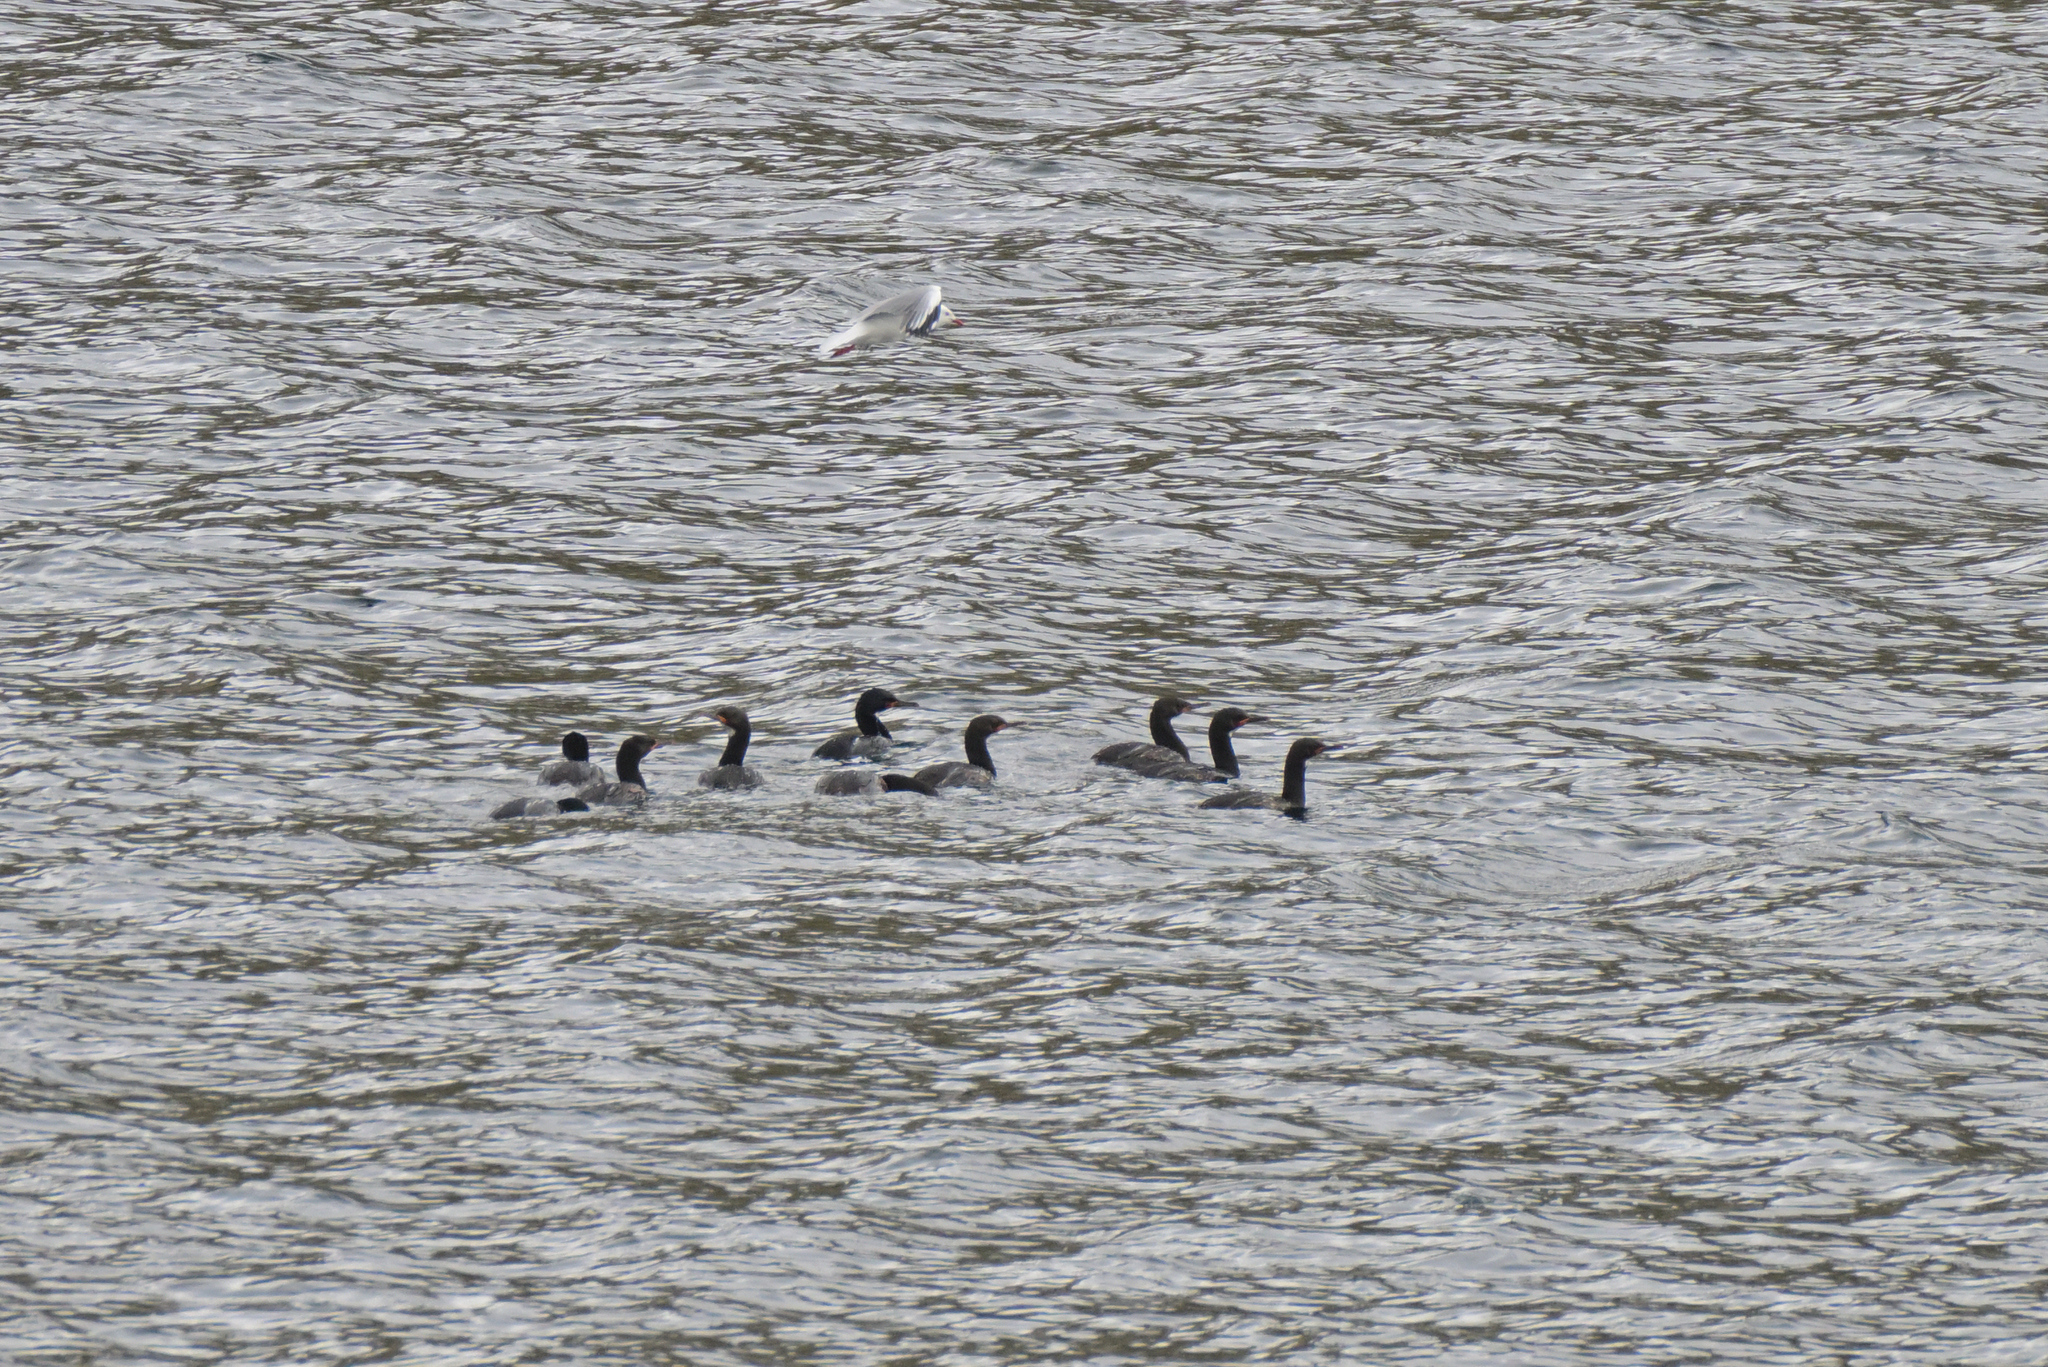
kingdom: Animalia
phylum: Chordata
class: Aves
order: Suliformes
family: Phalacrocoracidae
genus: Leucocarbo
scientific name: Leucocarbo campbelli
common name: Campbell shag
